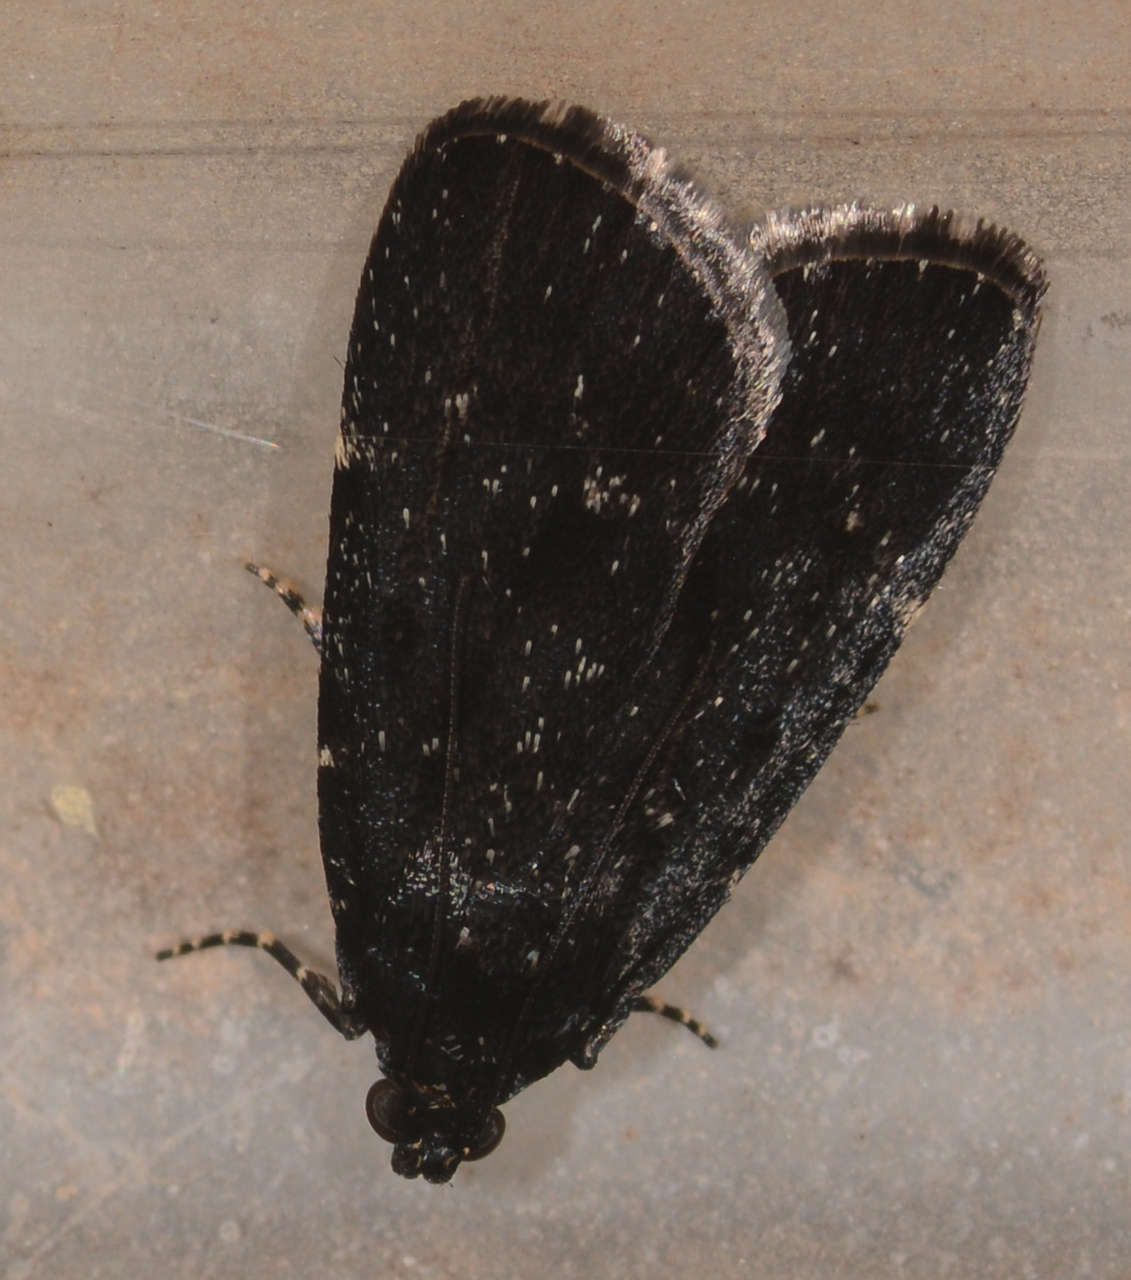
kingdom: Animalia
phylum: Arthropoda
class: Insecta
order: Lepidoptera
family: Pyralidae
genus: Stericta
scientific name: Stericta carbonalis
